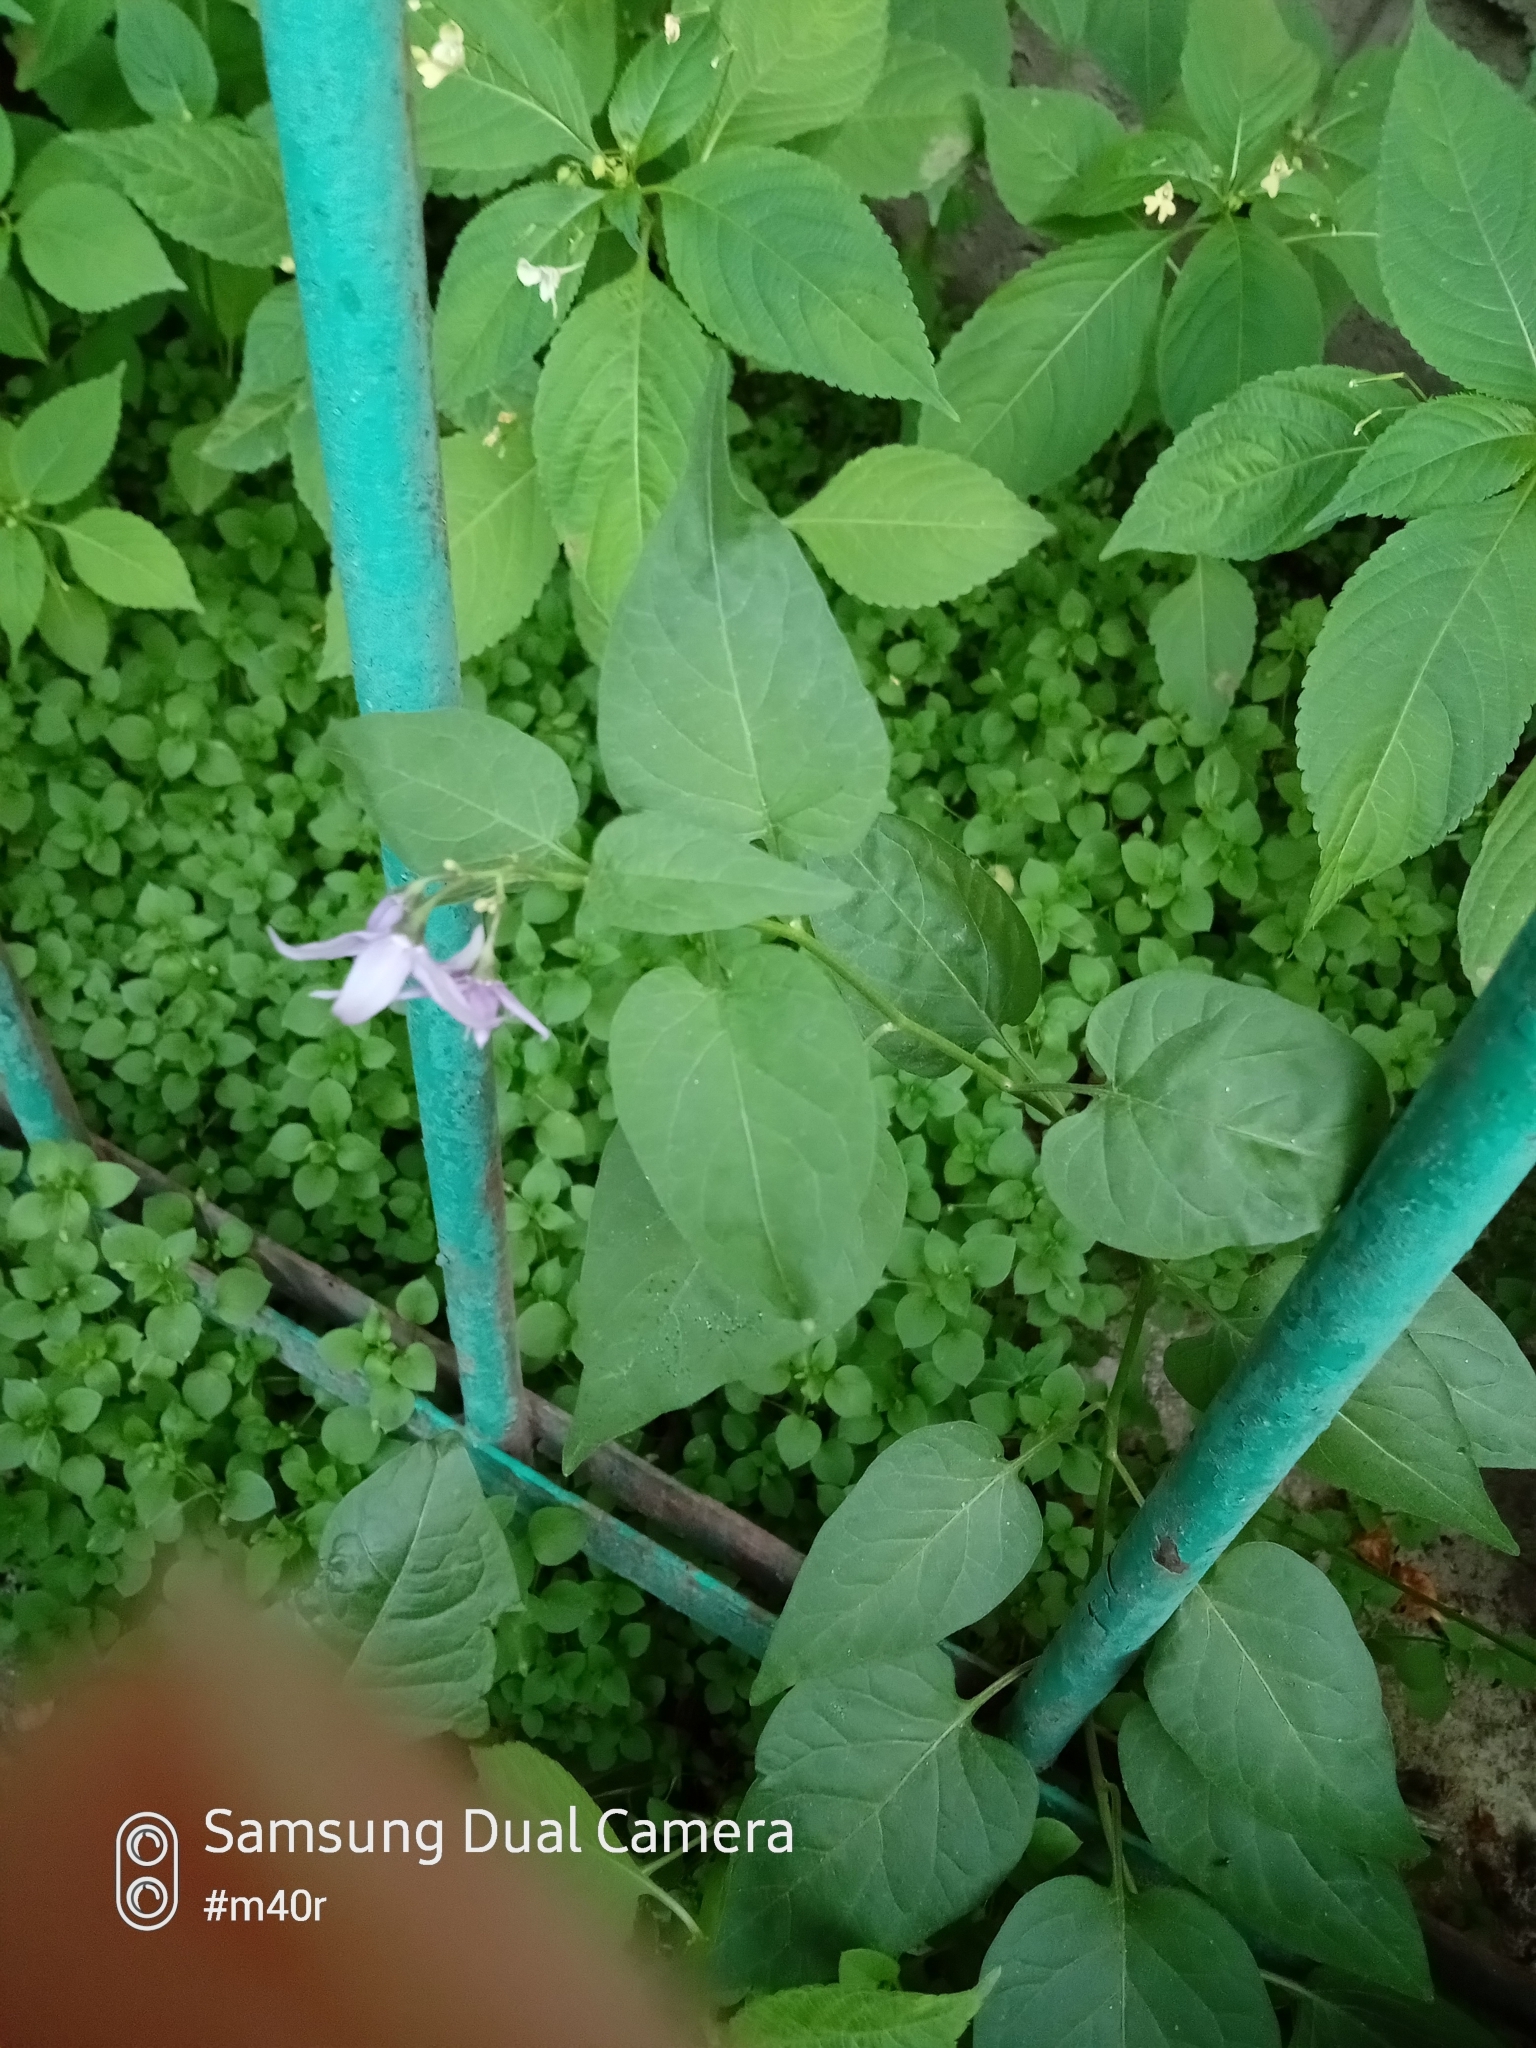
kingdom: Plantae
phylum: Tracheophyta
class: Magnoliopsida
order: Solanales
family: Solanaceae
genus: Solanum
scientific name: Solanum dulcamara
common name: Climbing nightshade
